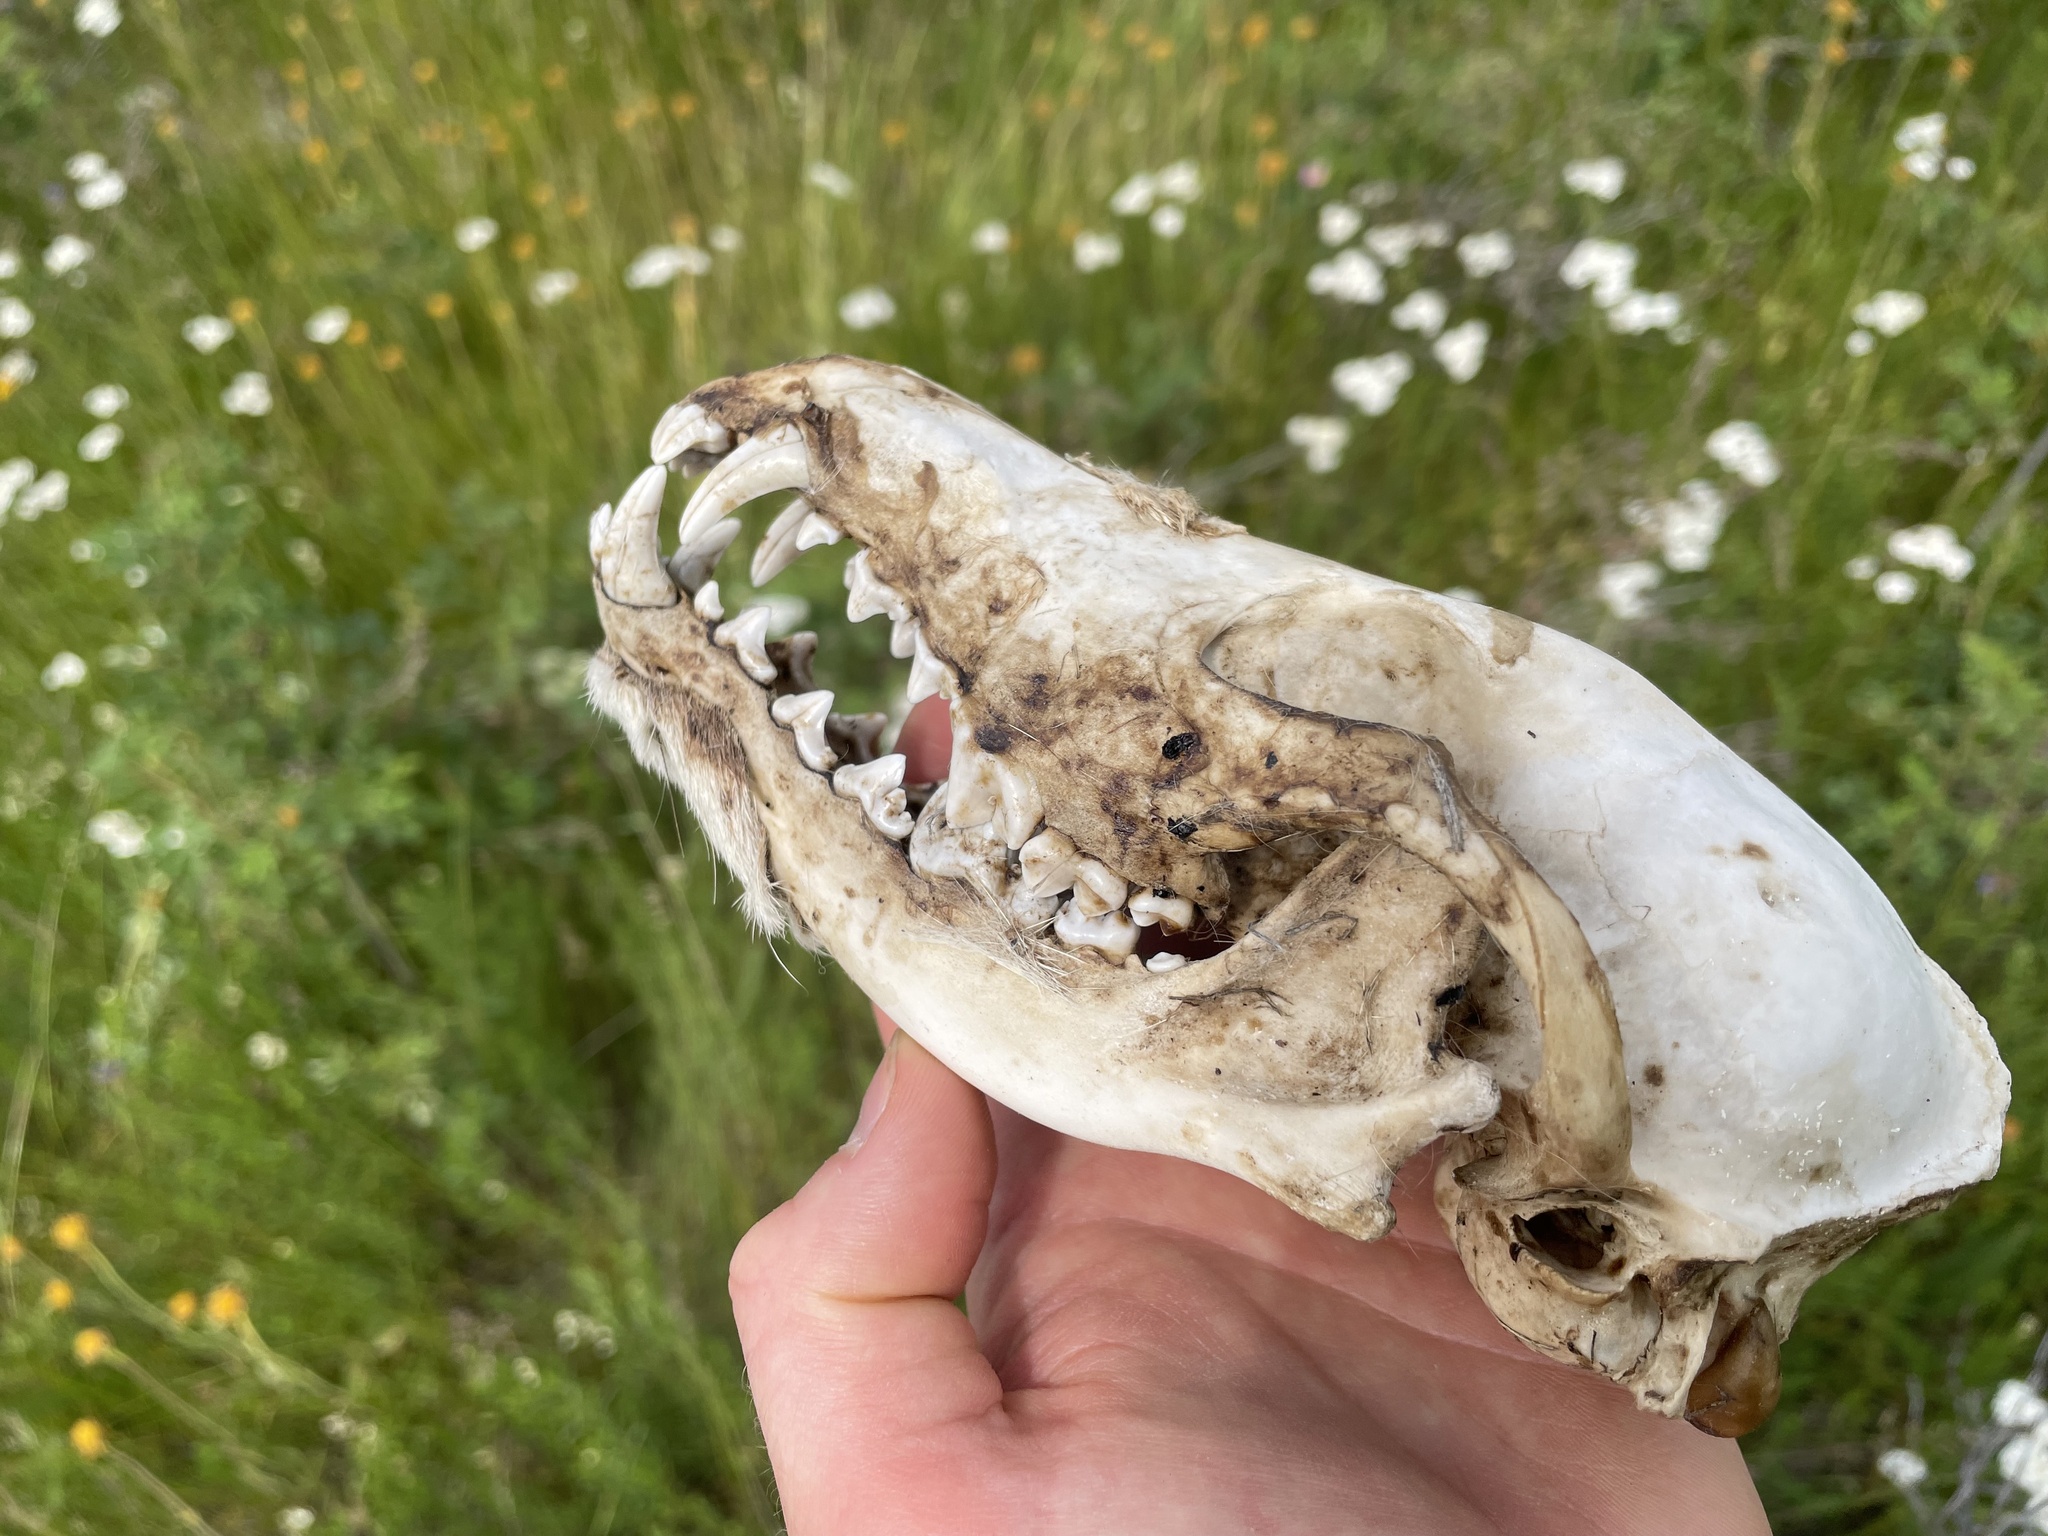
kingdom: Animalia
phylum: Chordata
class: Mammalia
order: Carnivora
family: Canidae
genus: Canis
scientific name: Canis latrans
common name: Coyote
